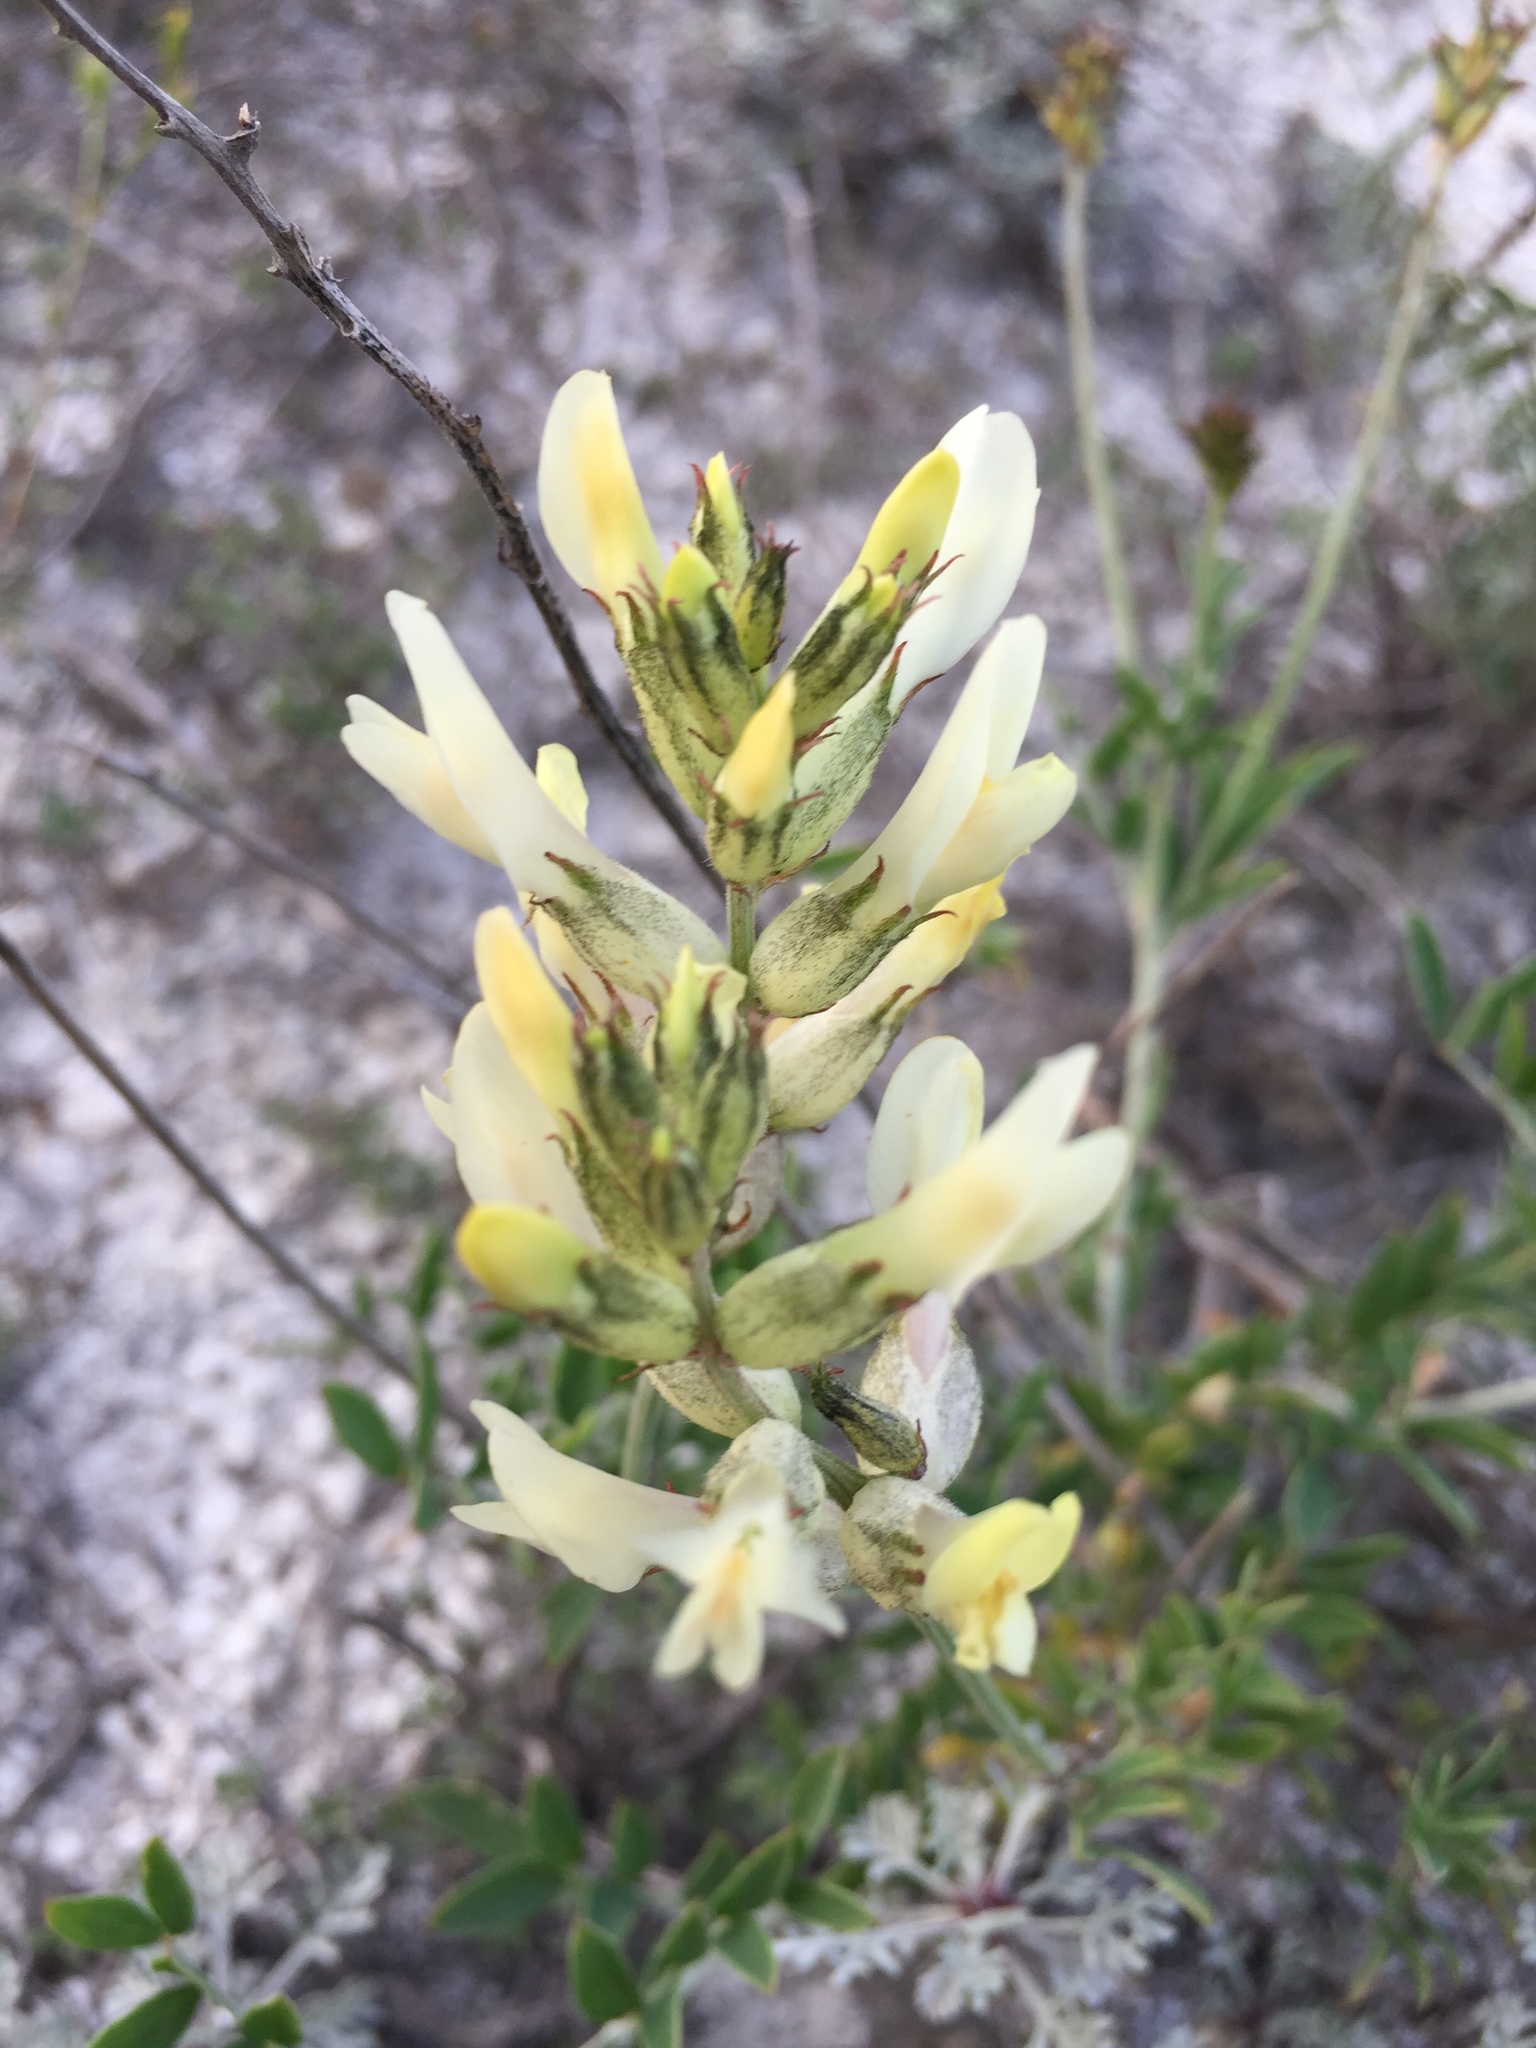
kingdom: Plantae
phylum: Tracheophyta
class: Magnoliopsida
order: Fabales
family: Fabaceae
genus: Astragalus
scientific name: Astragalus albicaulis
